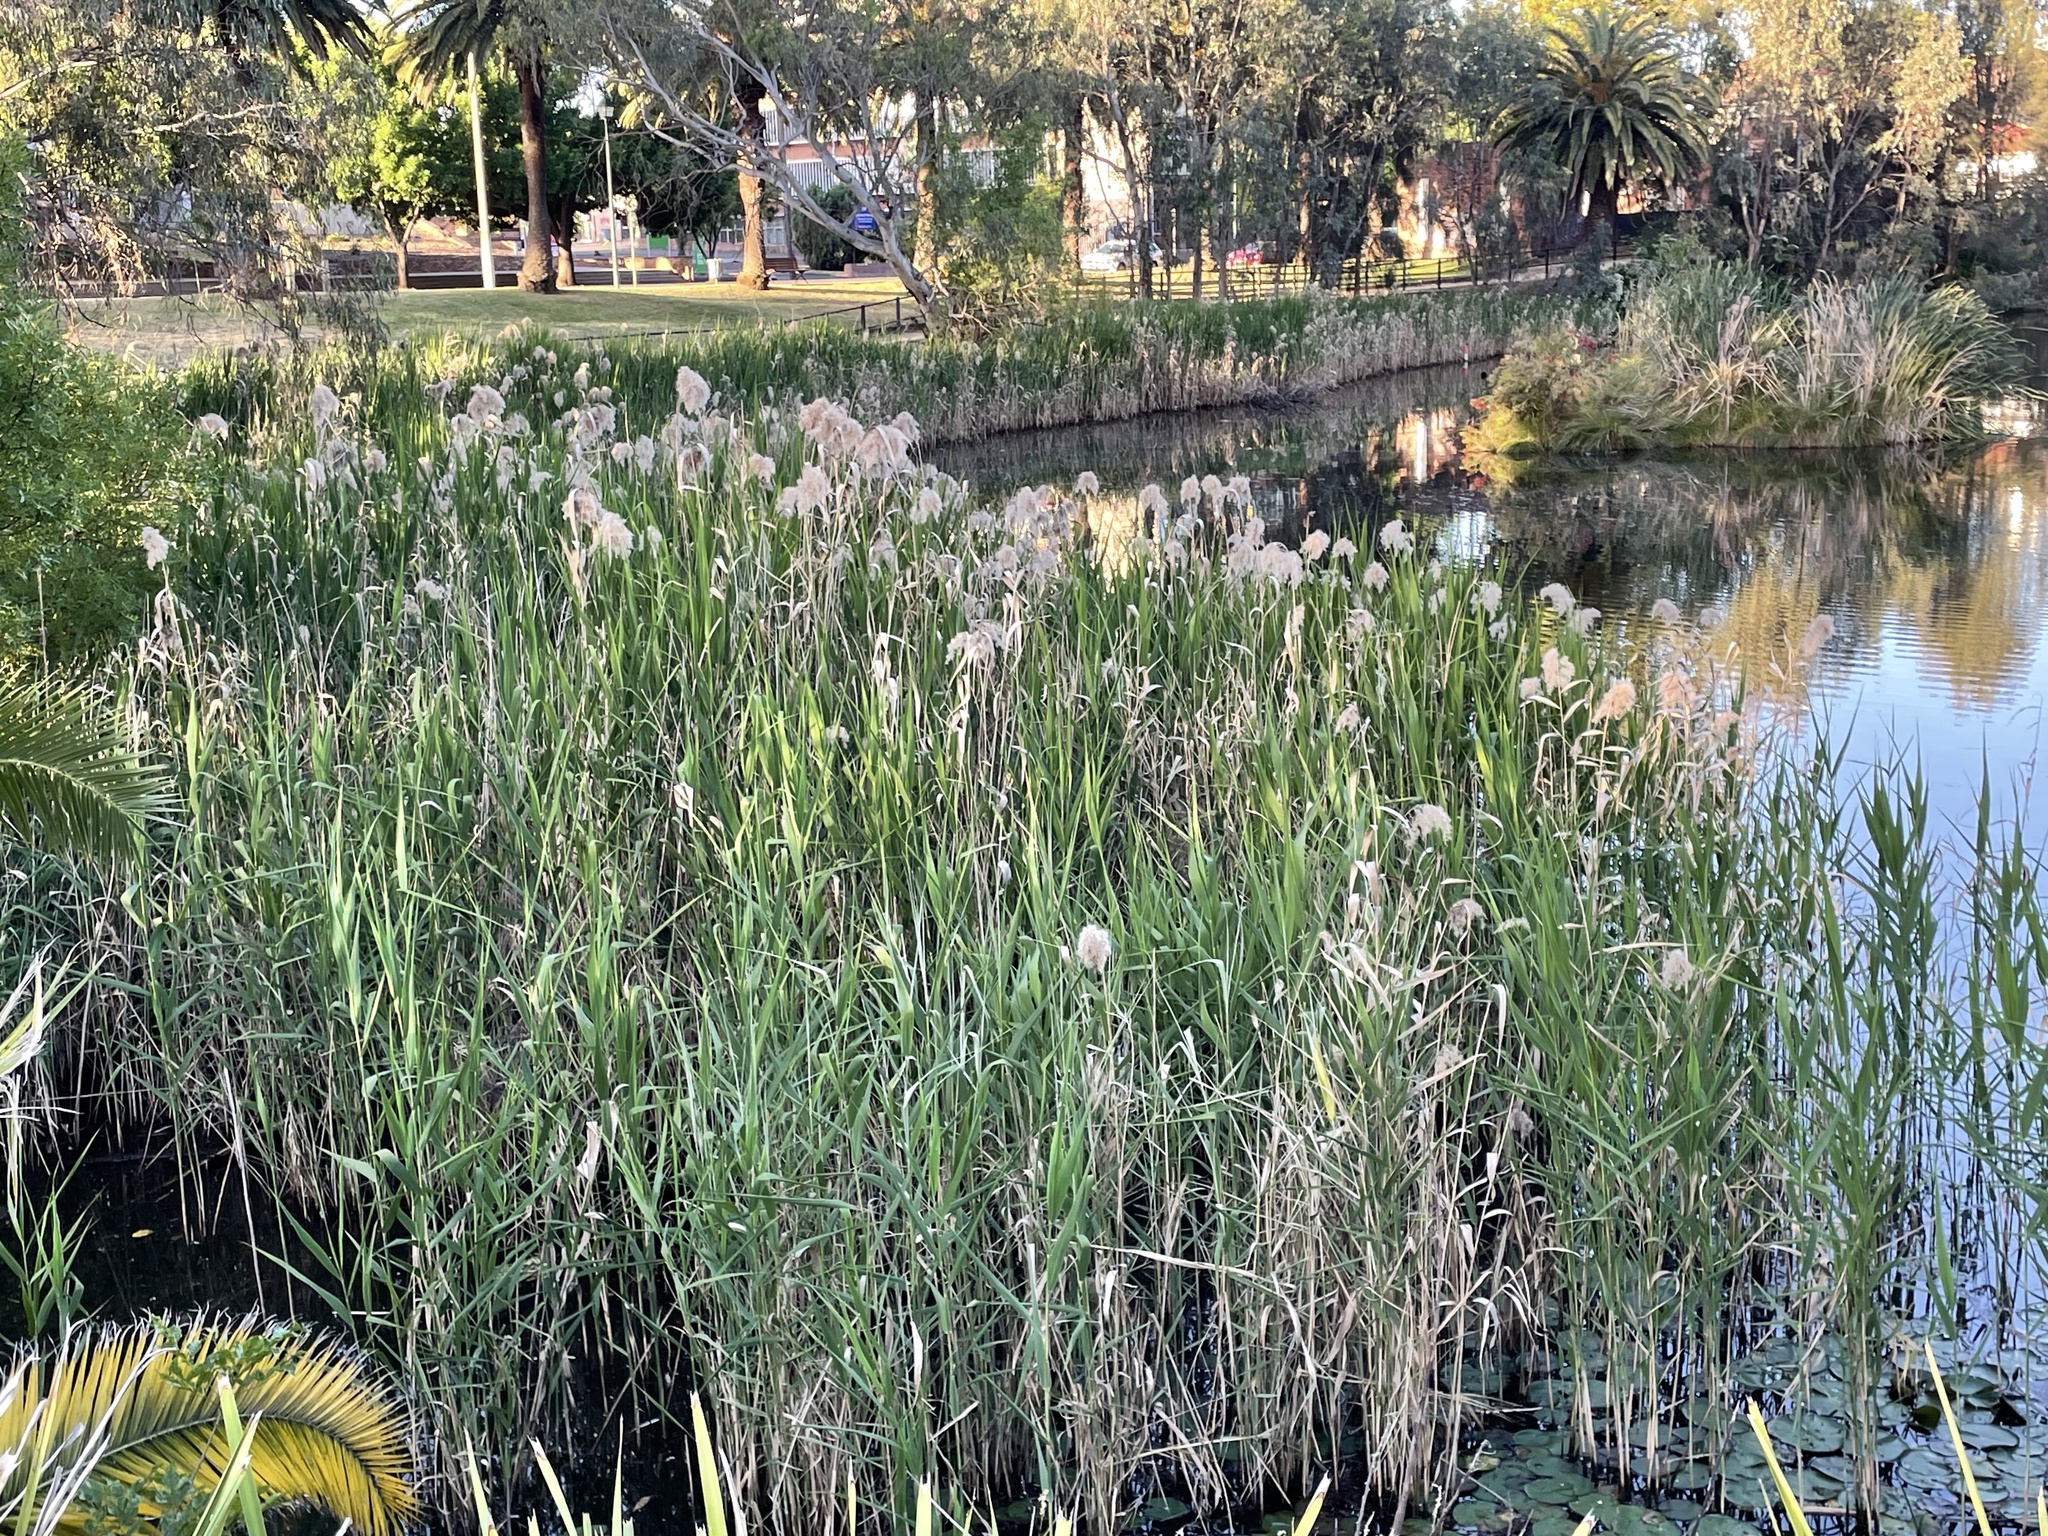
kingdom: Plantae
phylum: Tracheophyta
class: Liliopsida
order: Poales
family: Poaceae
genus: Phragmites
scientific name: Phragmites australis
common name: Common reed
